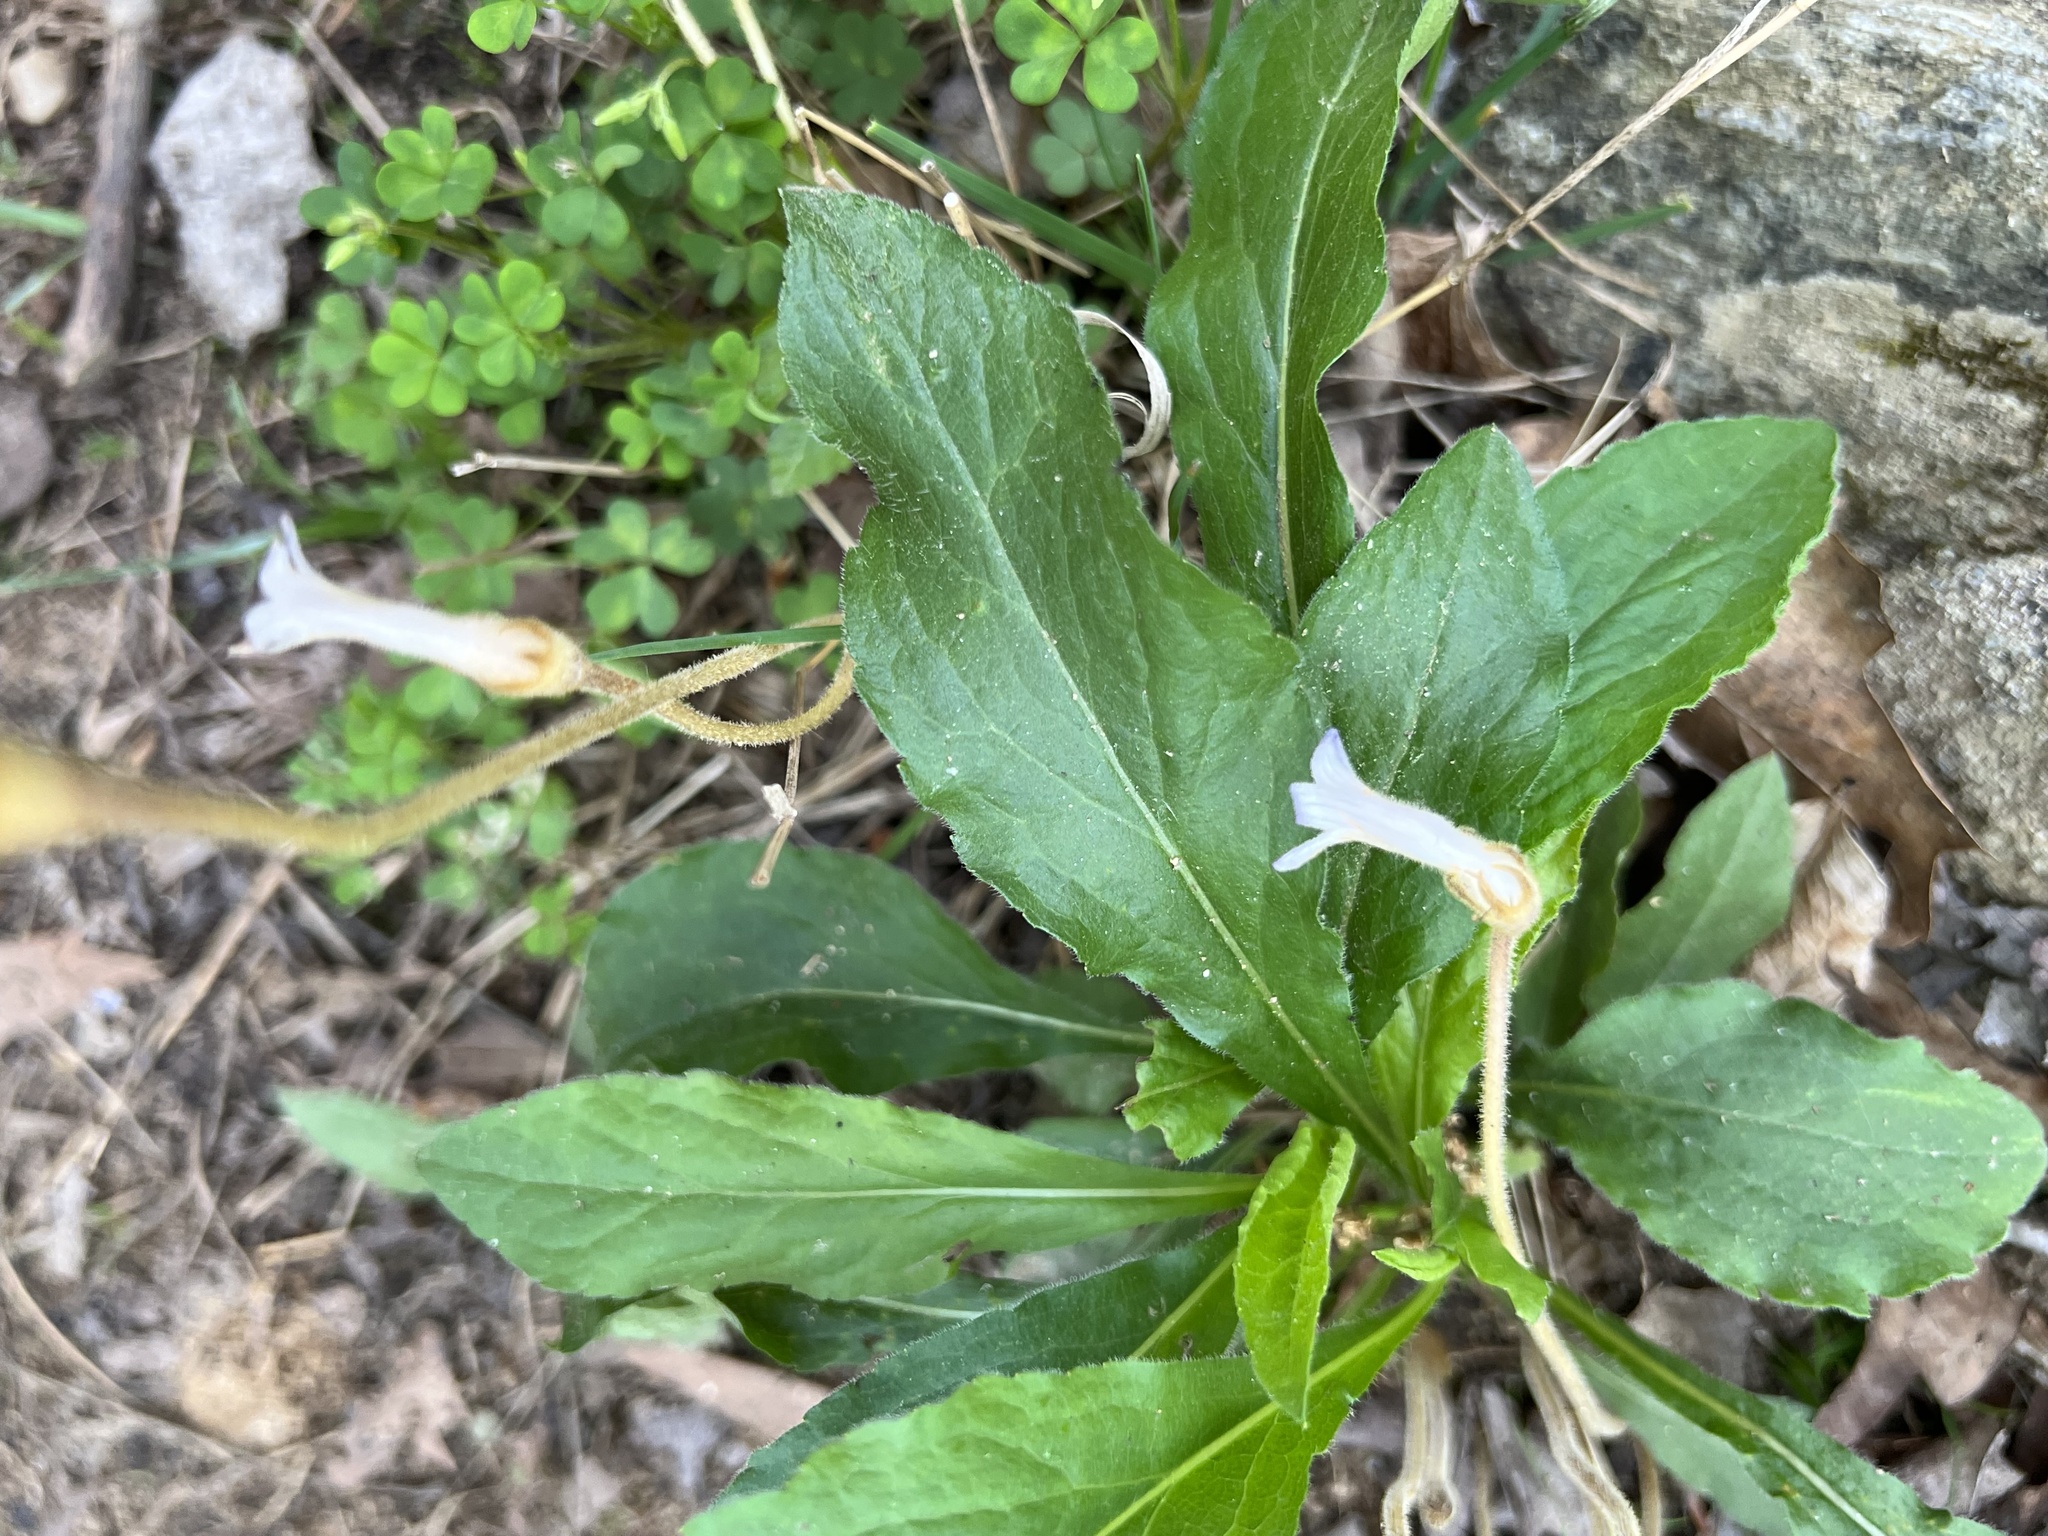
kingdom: Plantae
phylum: Tracheophyta
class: Magnoliopsida
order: Lamiales
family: Orobanchaceae
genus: Aphyllon
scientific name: Aphyllon uniflorum
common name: One-flowered broomrape
